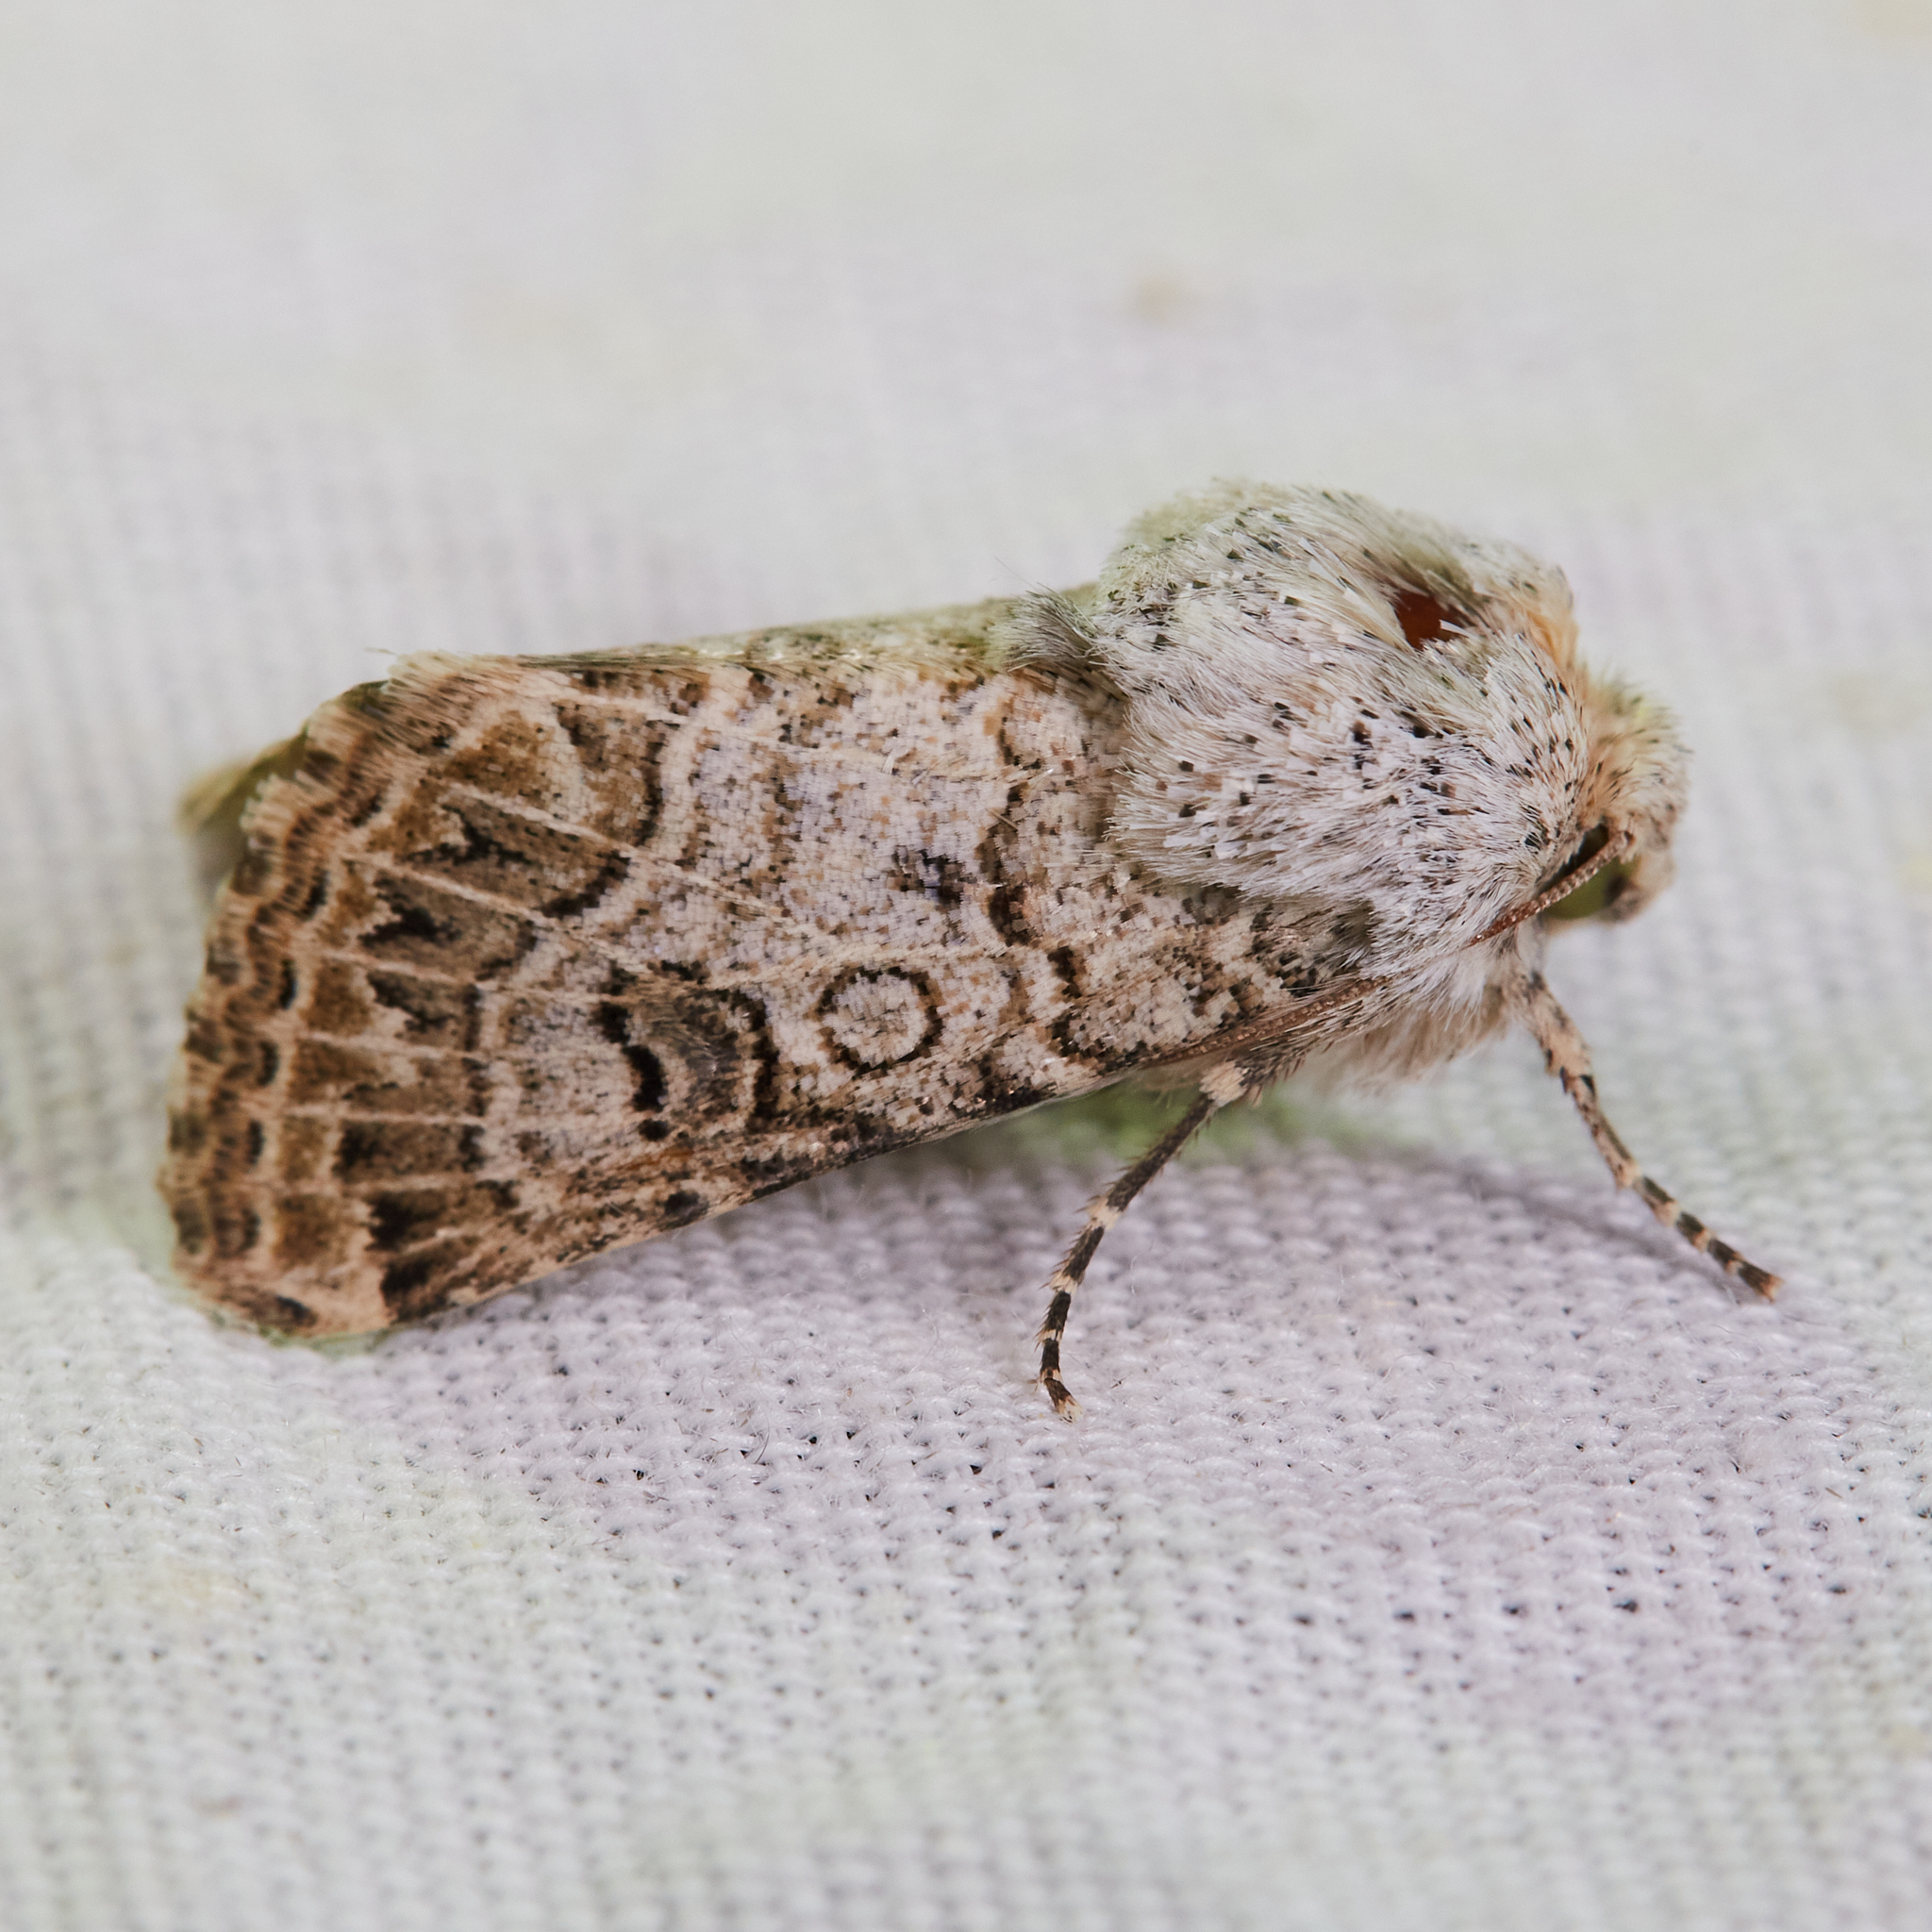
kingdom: Animalia
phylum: Arthropoda
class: Insecta
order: Lepidoptera
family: Noctuidae
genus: Schinia
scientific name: Schinia deserticola
